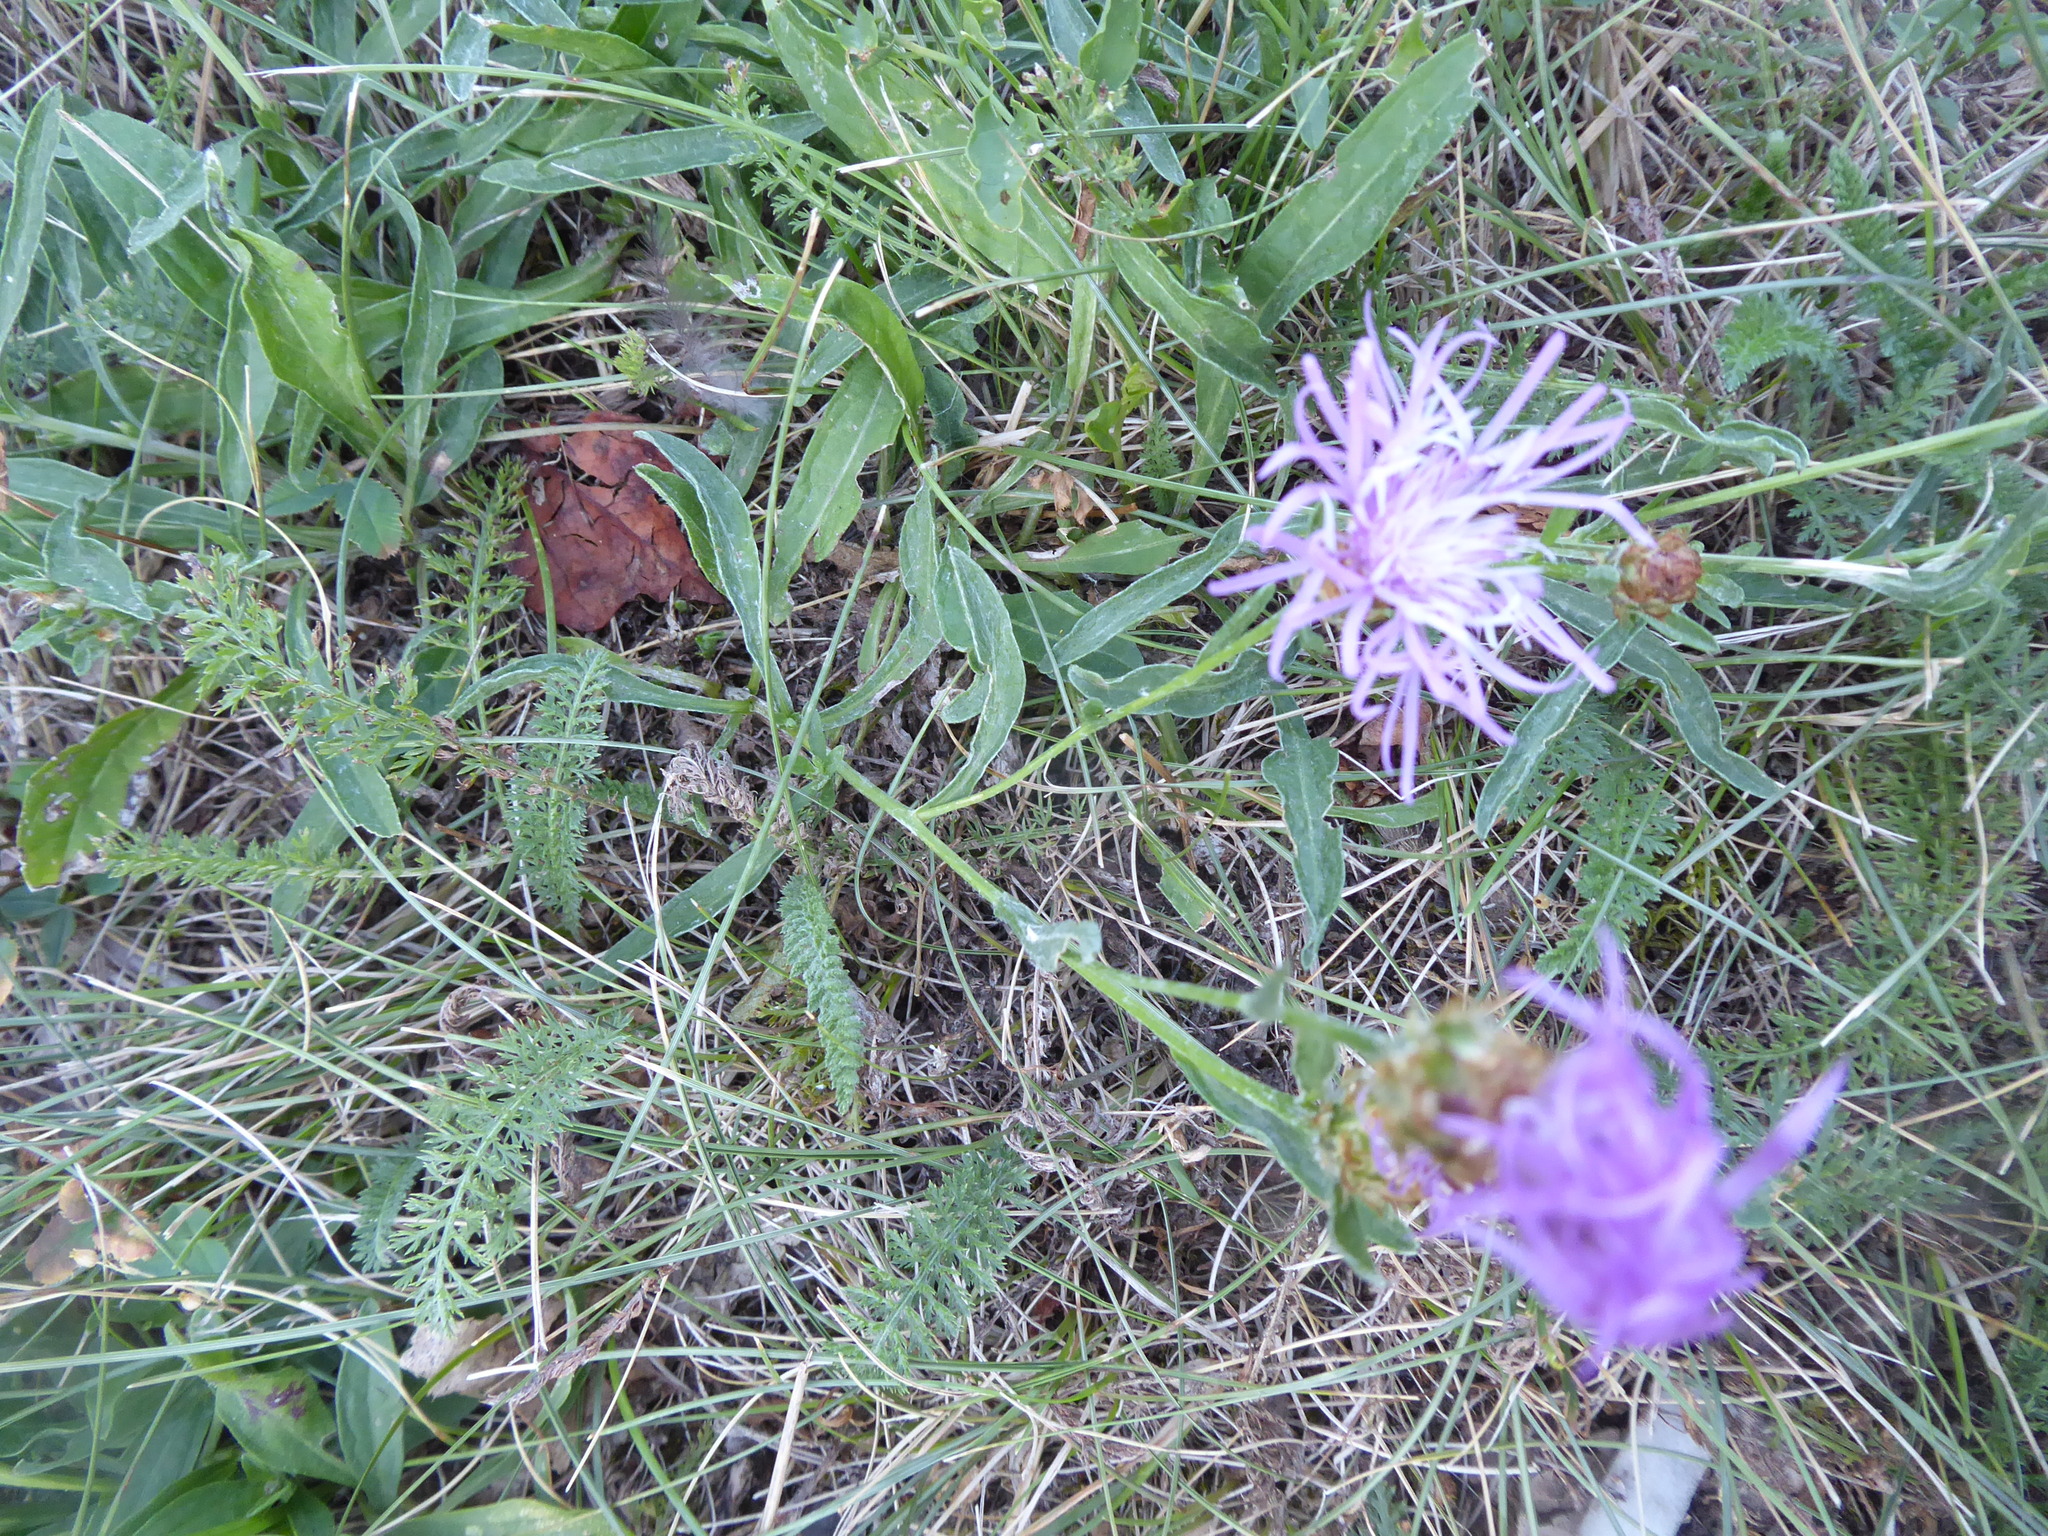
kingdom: Plantae
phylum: Tracheophyta
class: Magnoliopsida
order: Asterales
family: Asteraceae
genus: Centaurea
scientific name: Centaurea jacea
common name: Brown knapweed
